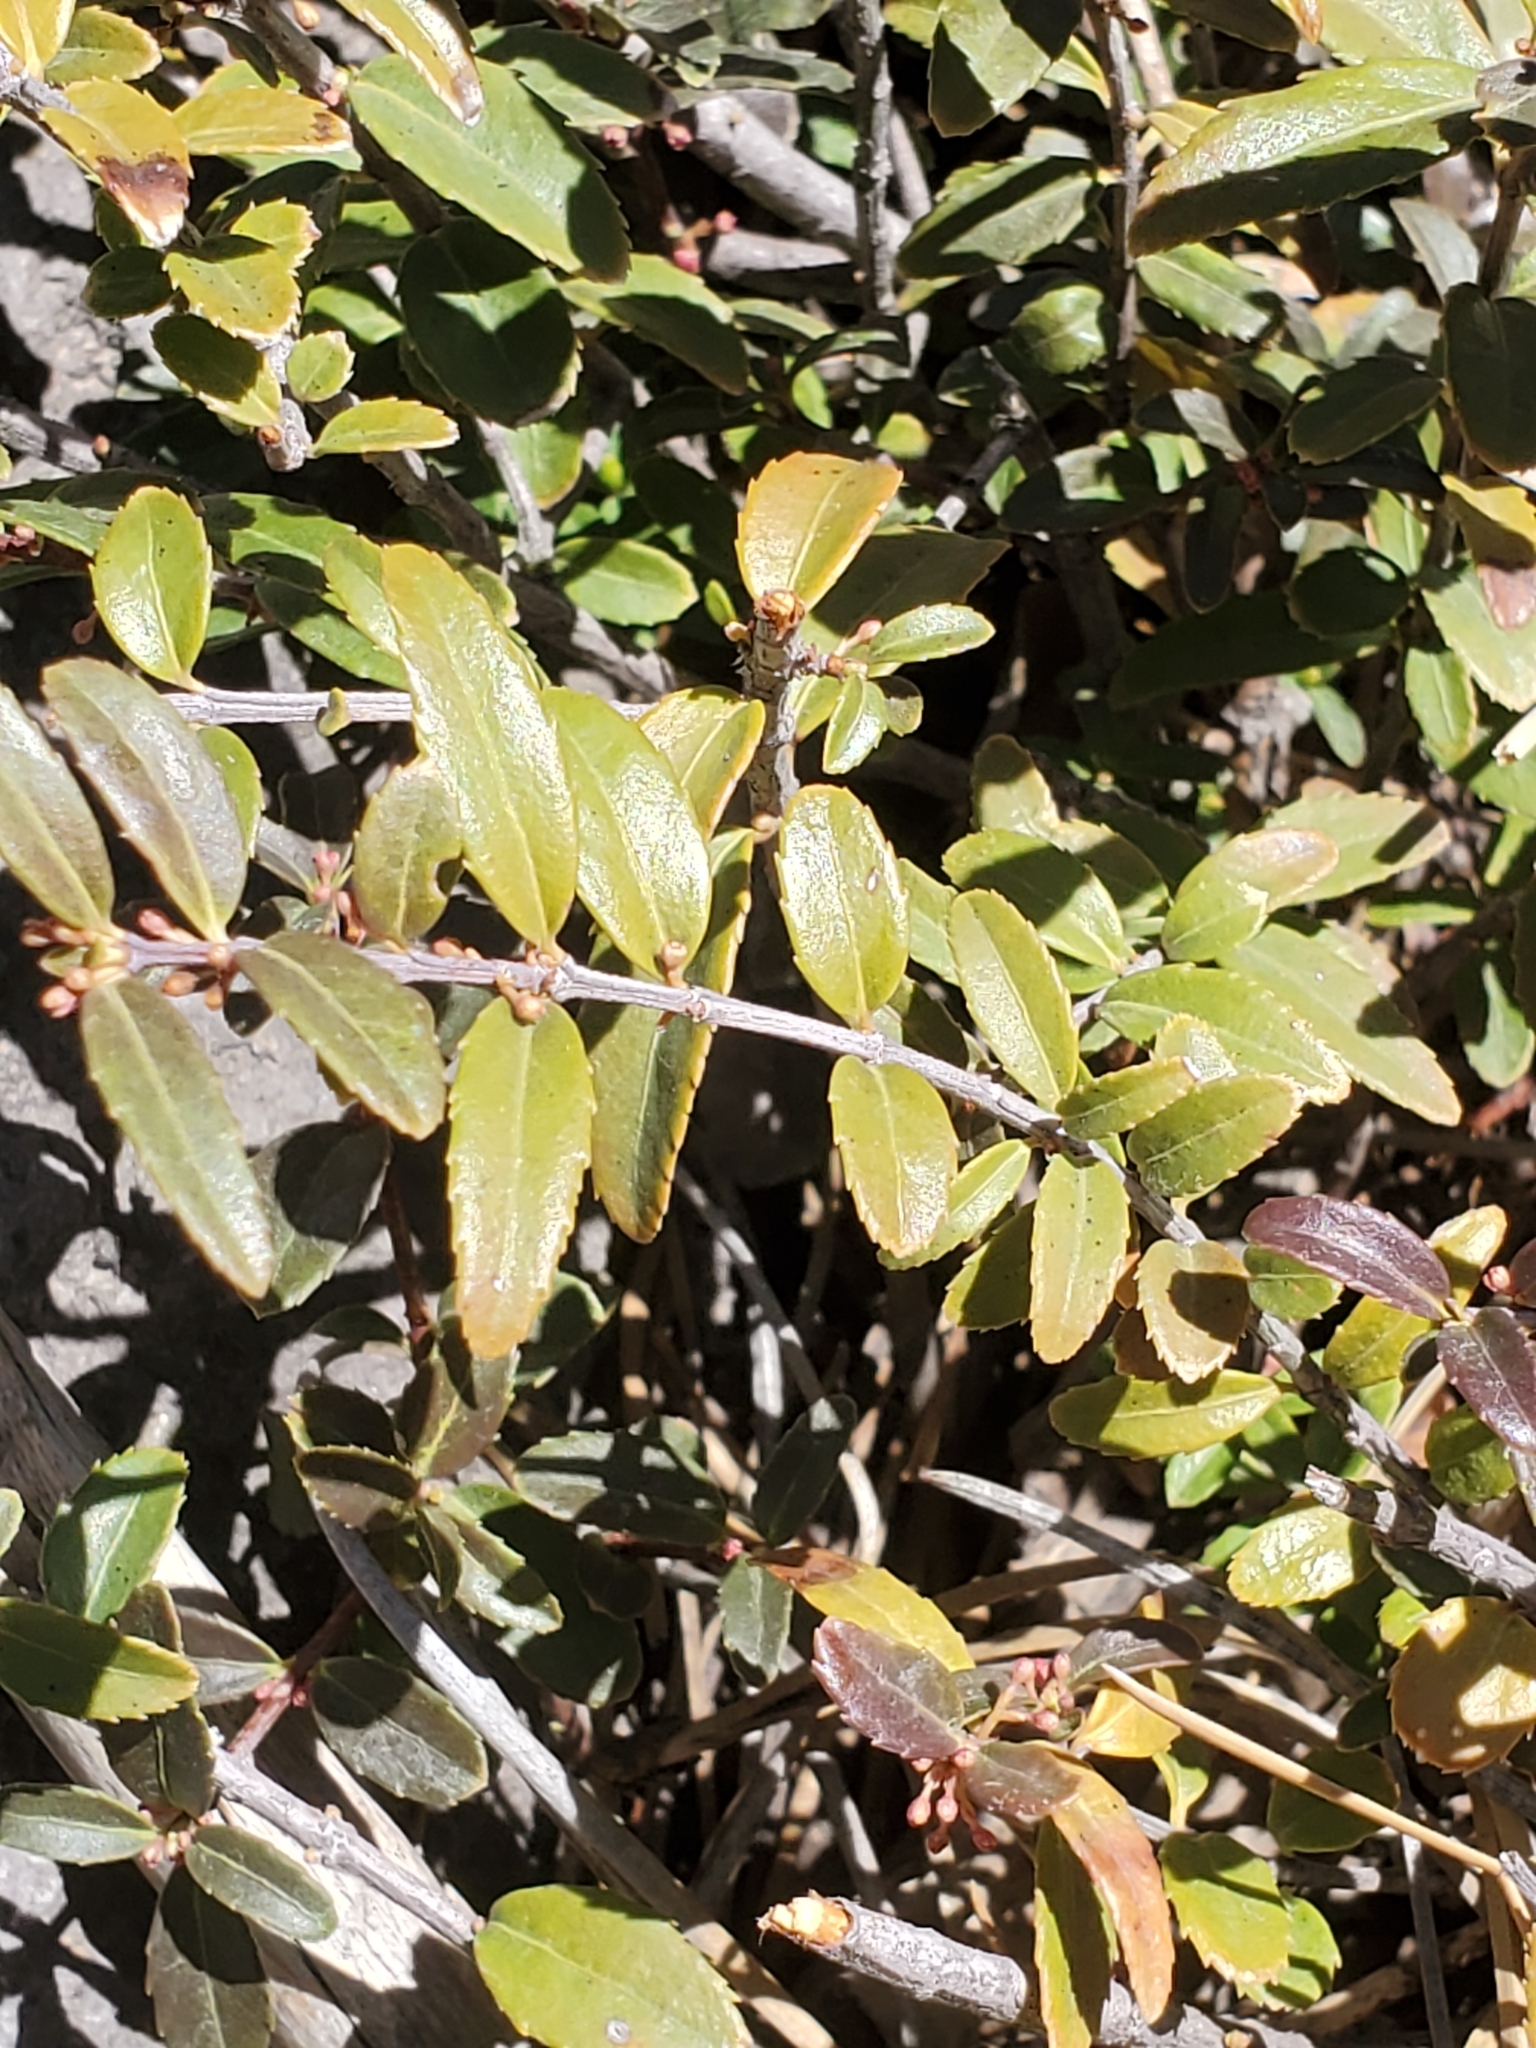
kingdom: Plantae
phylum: Tracheophyta
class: Magnoliopsida
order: Celastrales
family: Celastraceae
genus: Paxistima
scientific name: Paxistima myrsinites
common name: Mountain-lover
